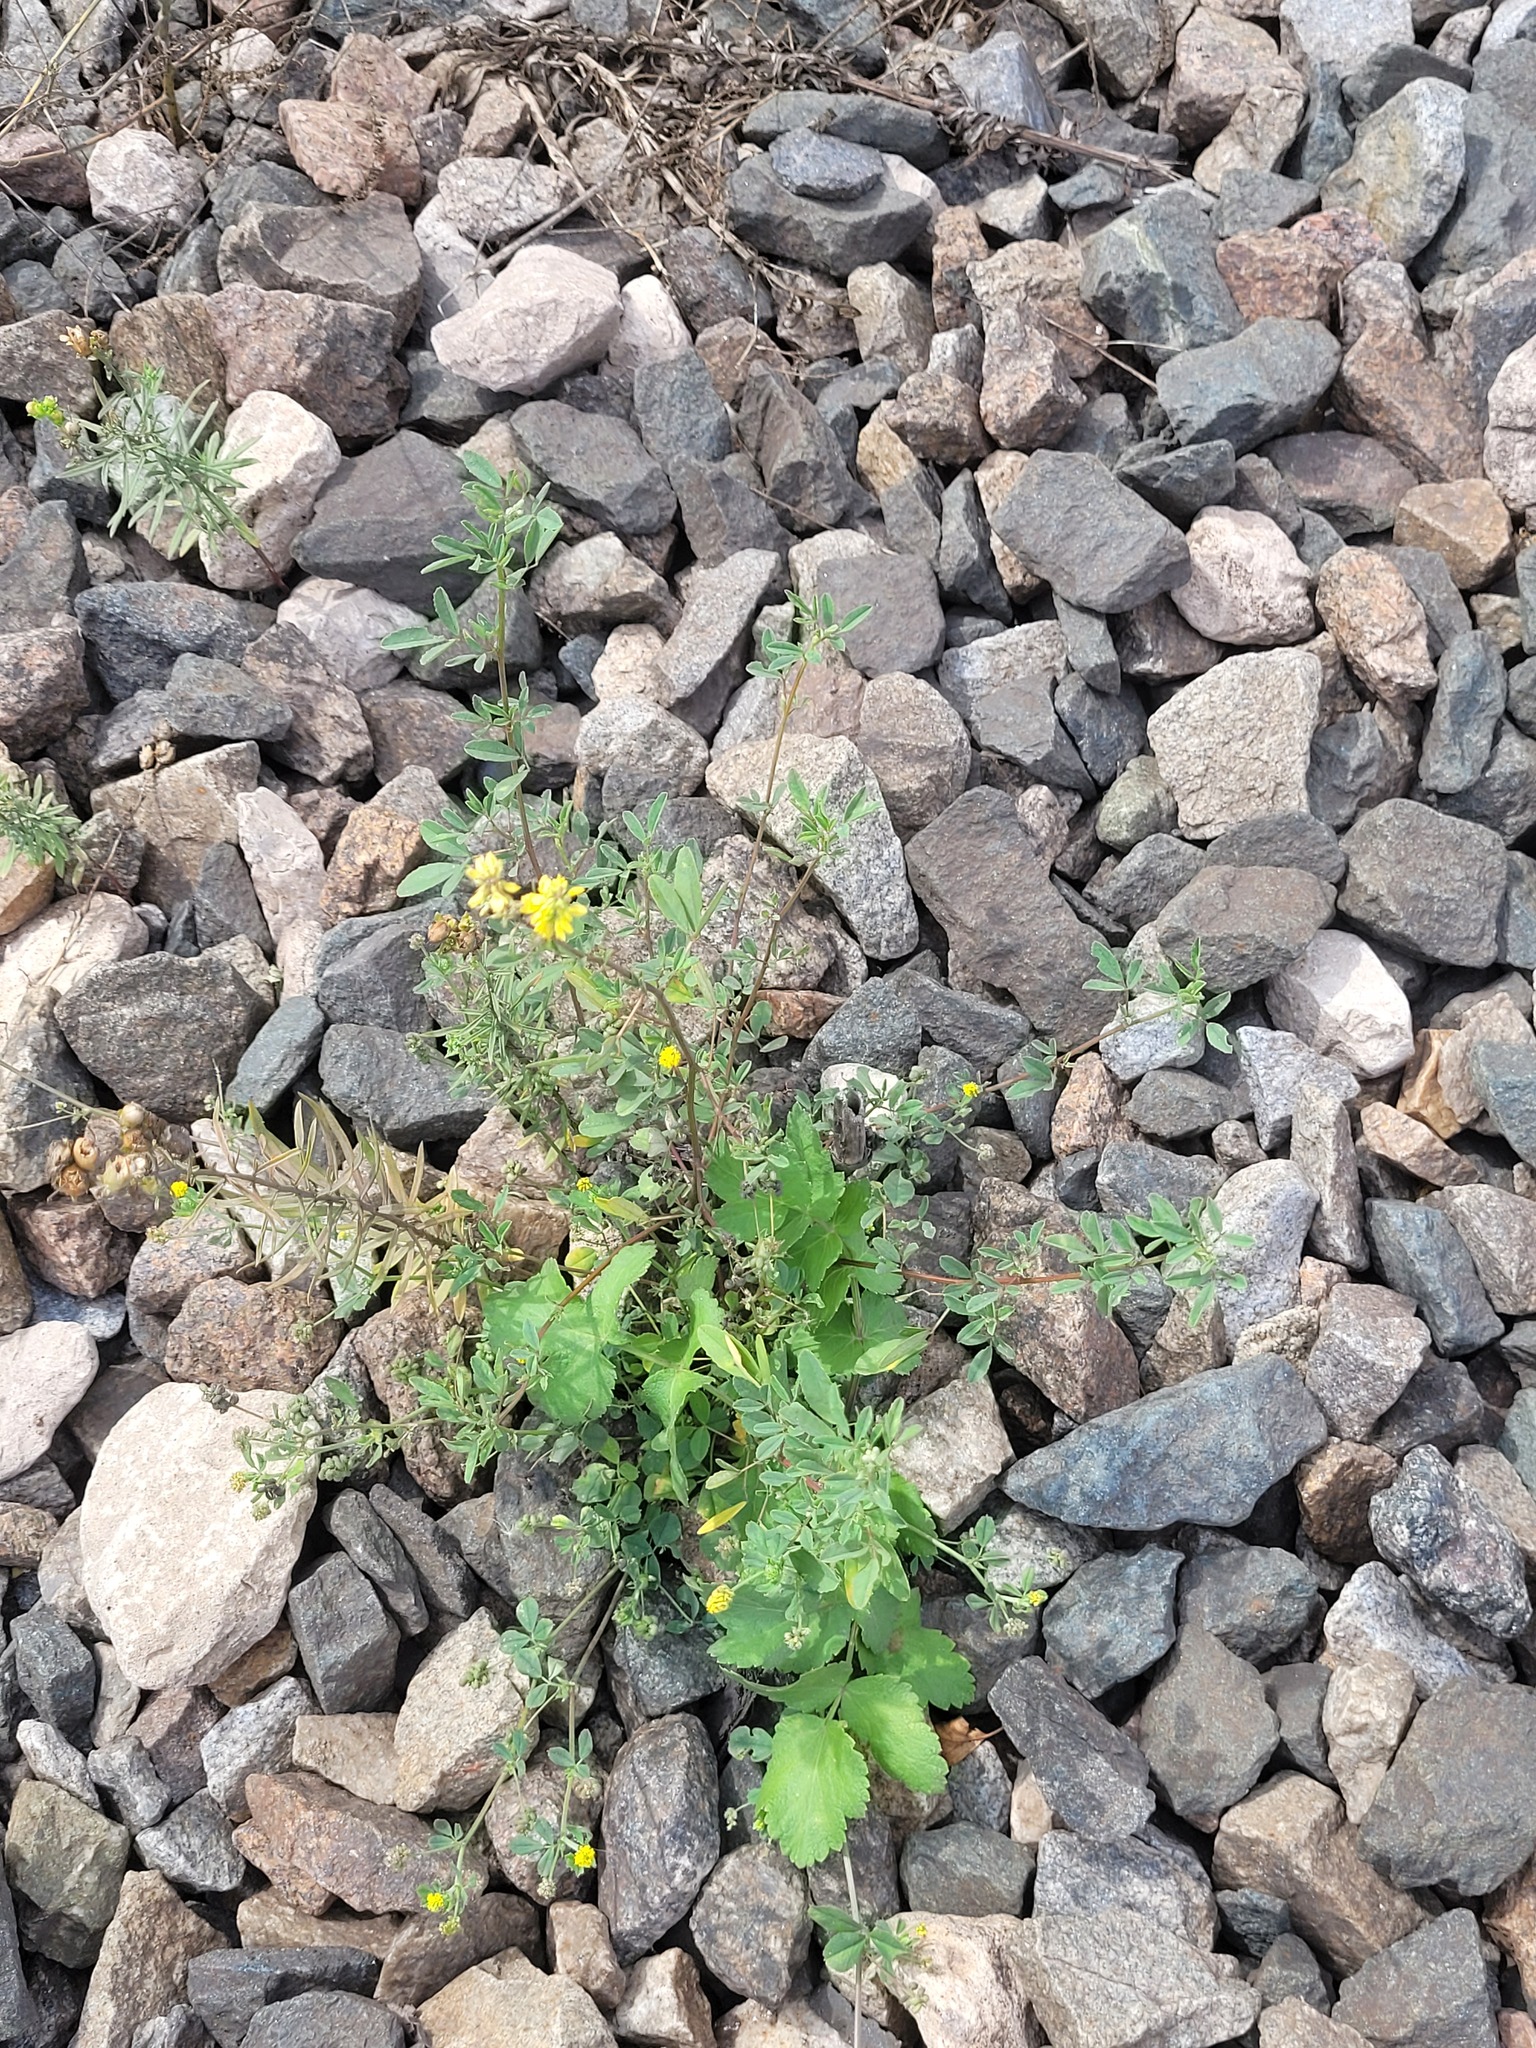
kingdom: Plantae
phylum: Tracheophyta
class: Magnoliopsida
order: Fabales
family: Fabaceae
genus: Medicago
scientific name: Medicago falcata
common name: Sickle medick
